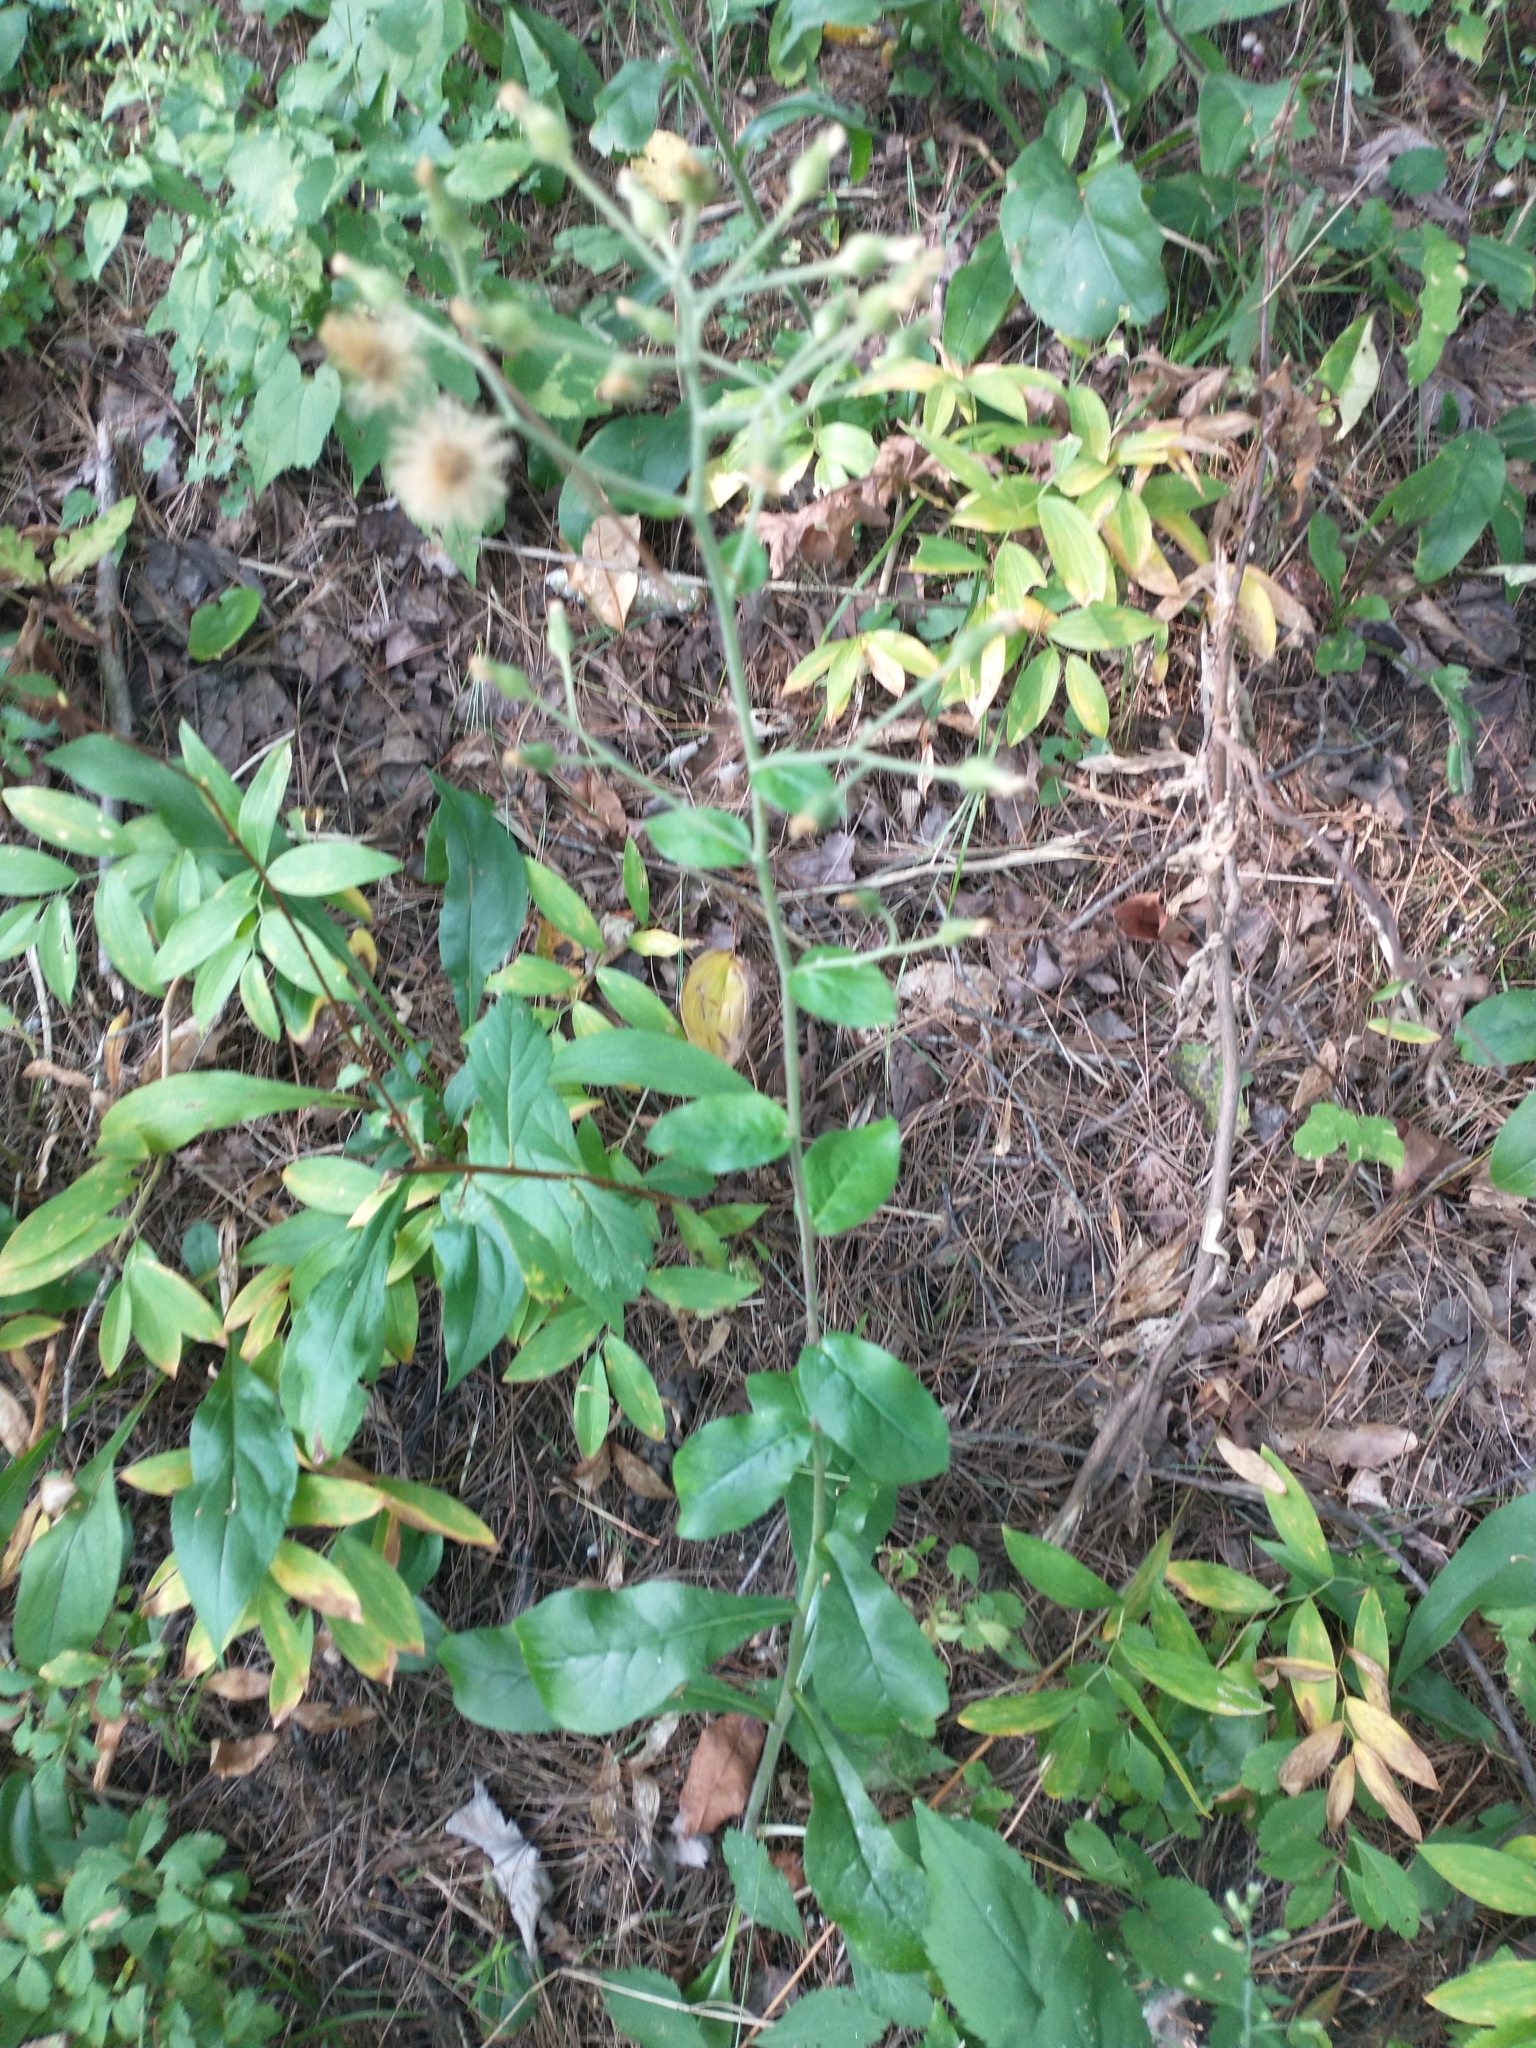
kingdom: Plantae
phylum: Tracheophyta
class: Magnoliopsida
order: Asterales
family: Asteraceae
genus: Hieracium
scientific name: Hieracium scabrum
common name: Rough hawkweed
